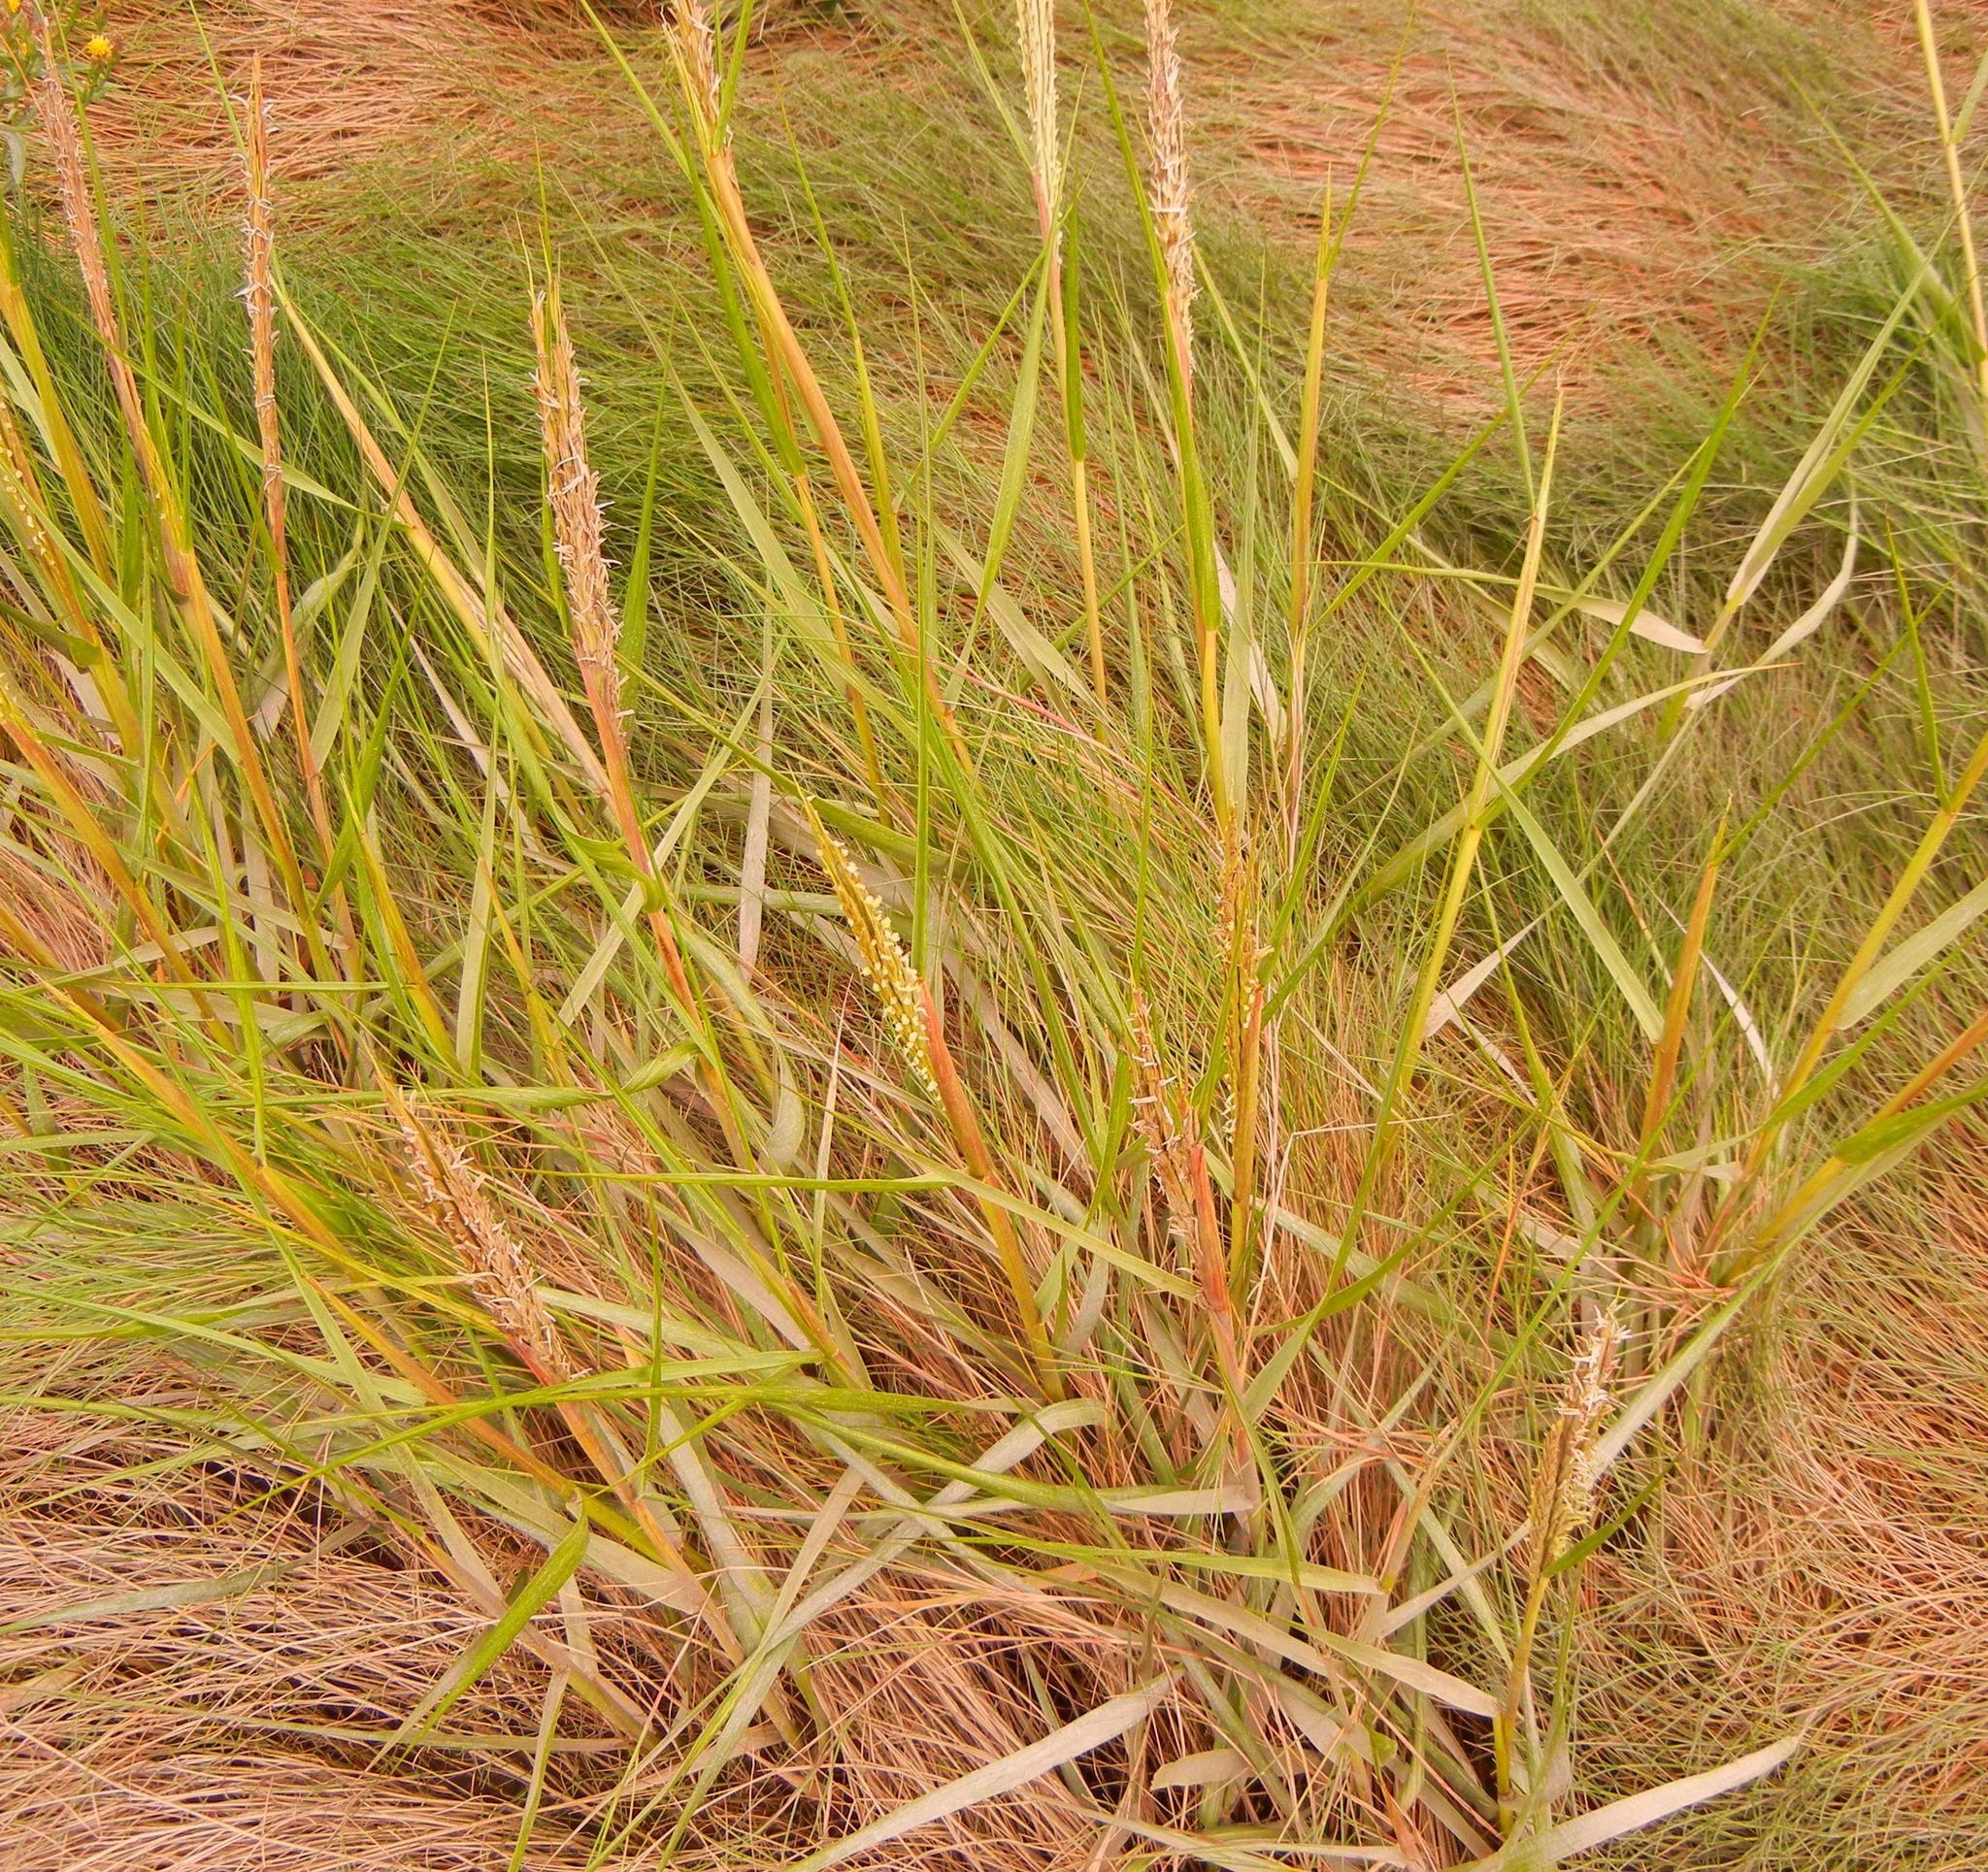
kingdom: Plantae
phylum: Tracheophyta
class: Liliopsida
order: Poales
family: Poaceae
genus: Sporobolus
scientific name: Sporobolus anglicus
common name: English cordgrass
